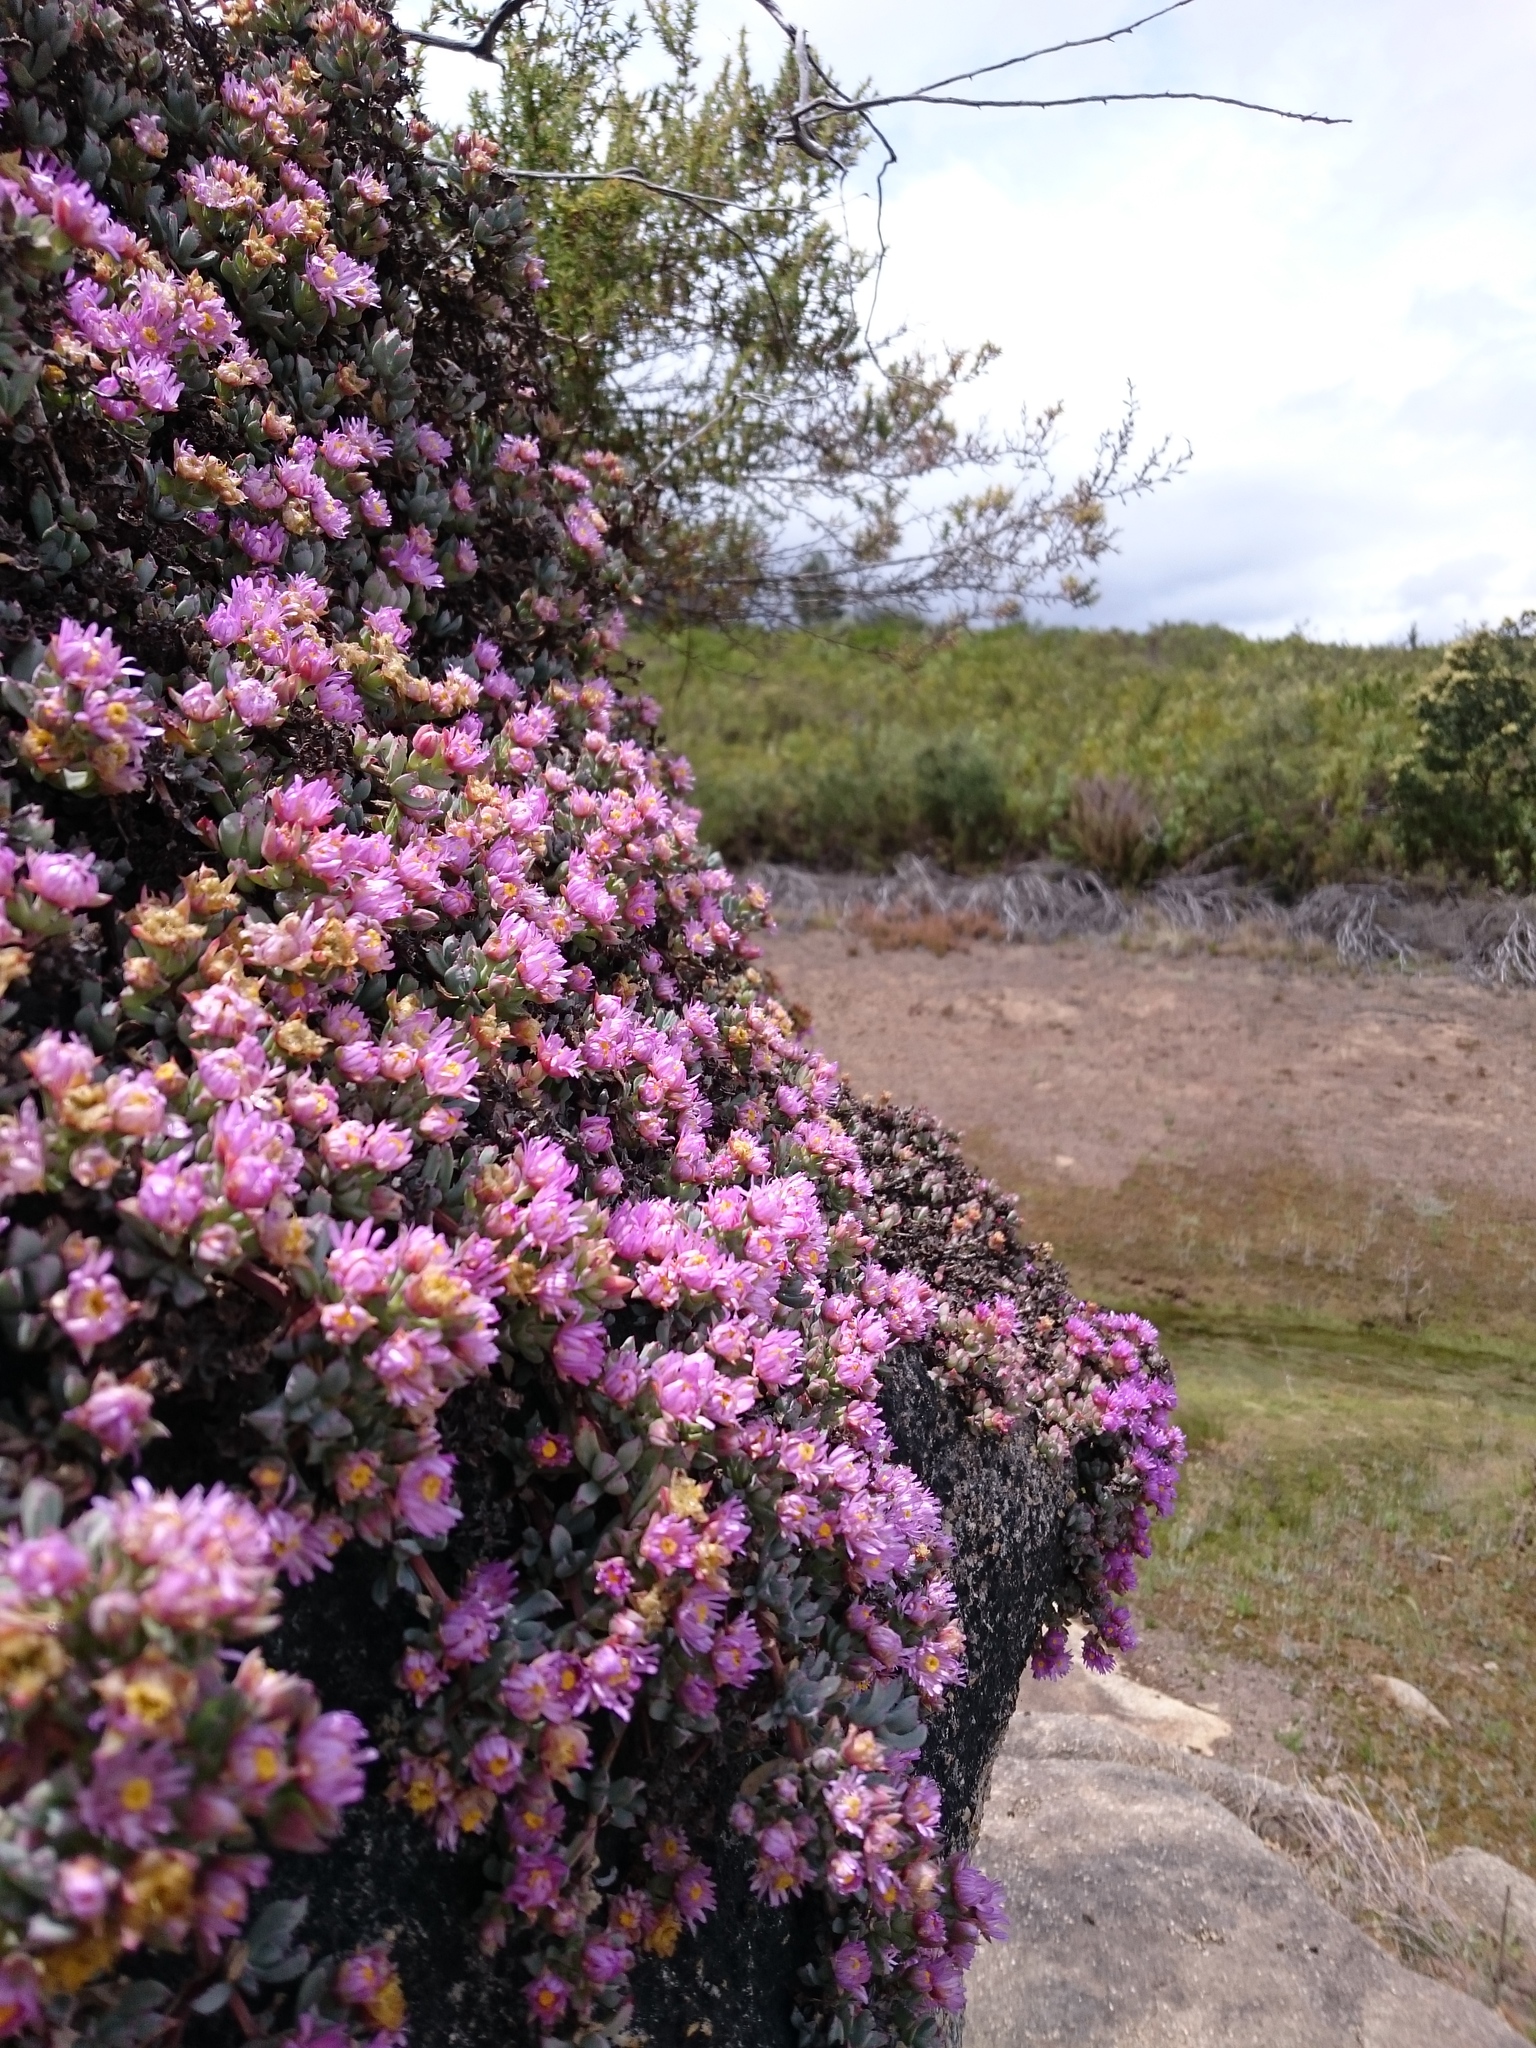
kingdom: Plantae
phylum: Tracheophyta
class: Magnoliopsida
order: Caryophyllales
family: Aizoaceae
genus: Oscularia
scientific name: Oscularia deltoides
